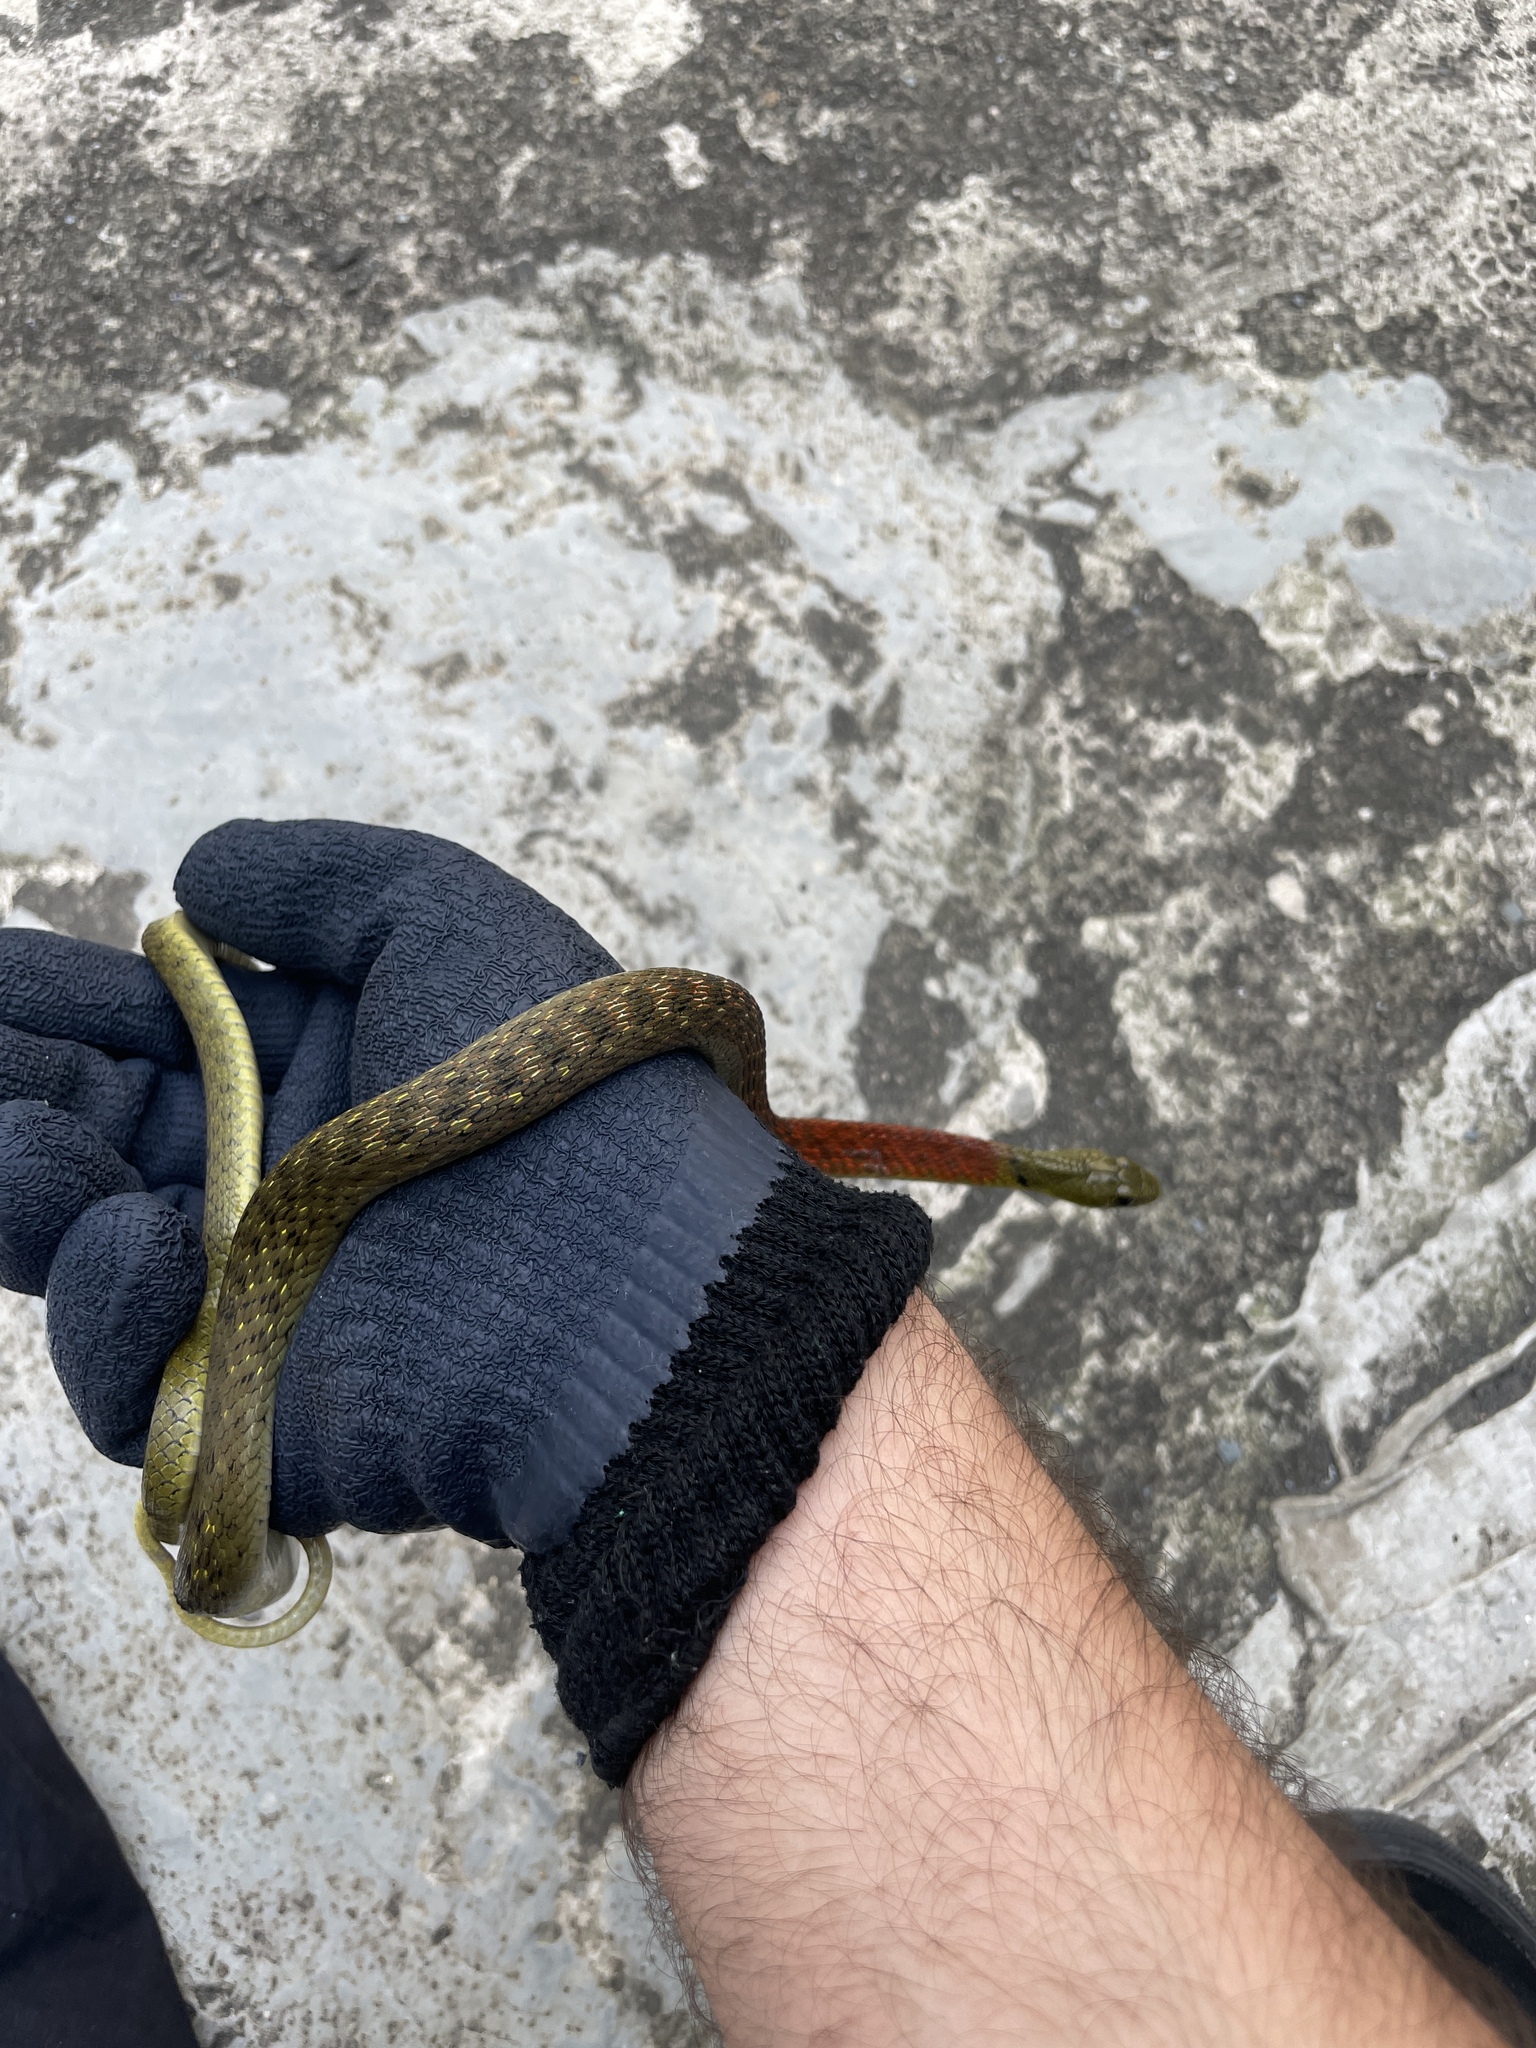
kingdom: Animalia
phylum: Chordata
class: Squamata
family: Colubridae
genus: Rhabdophis
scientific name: Rhabdophis helleri
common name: Heller’s red-necked keelback
